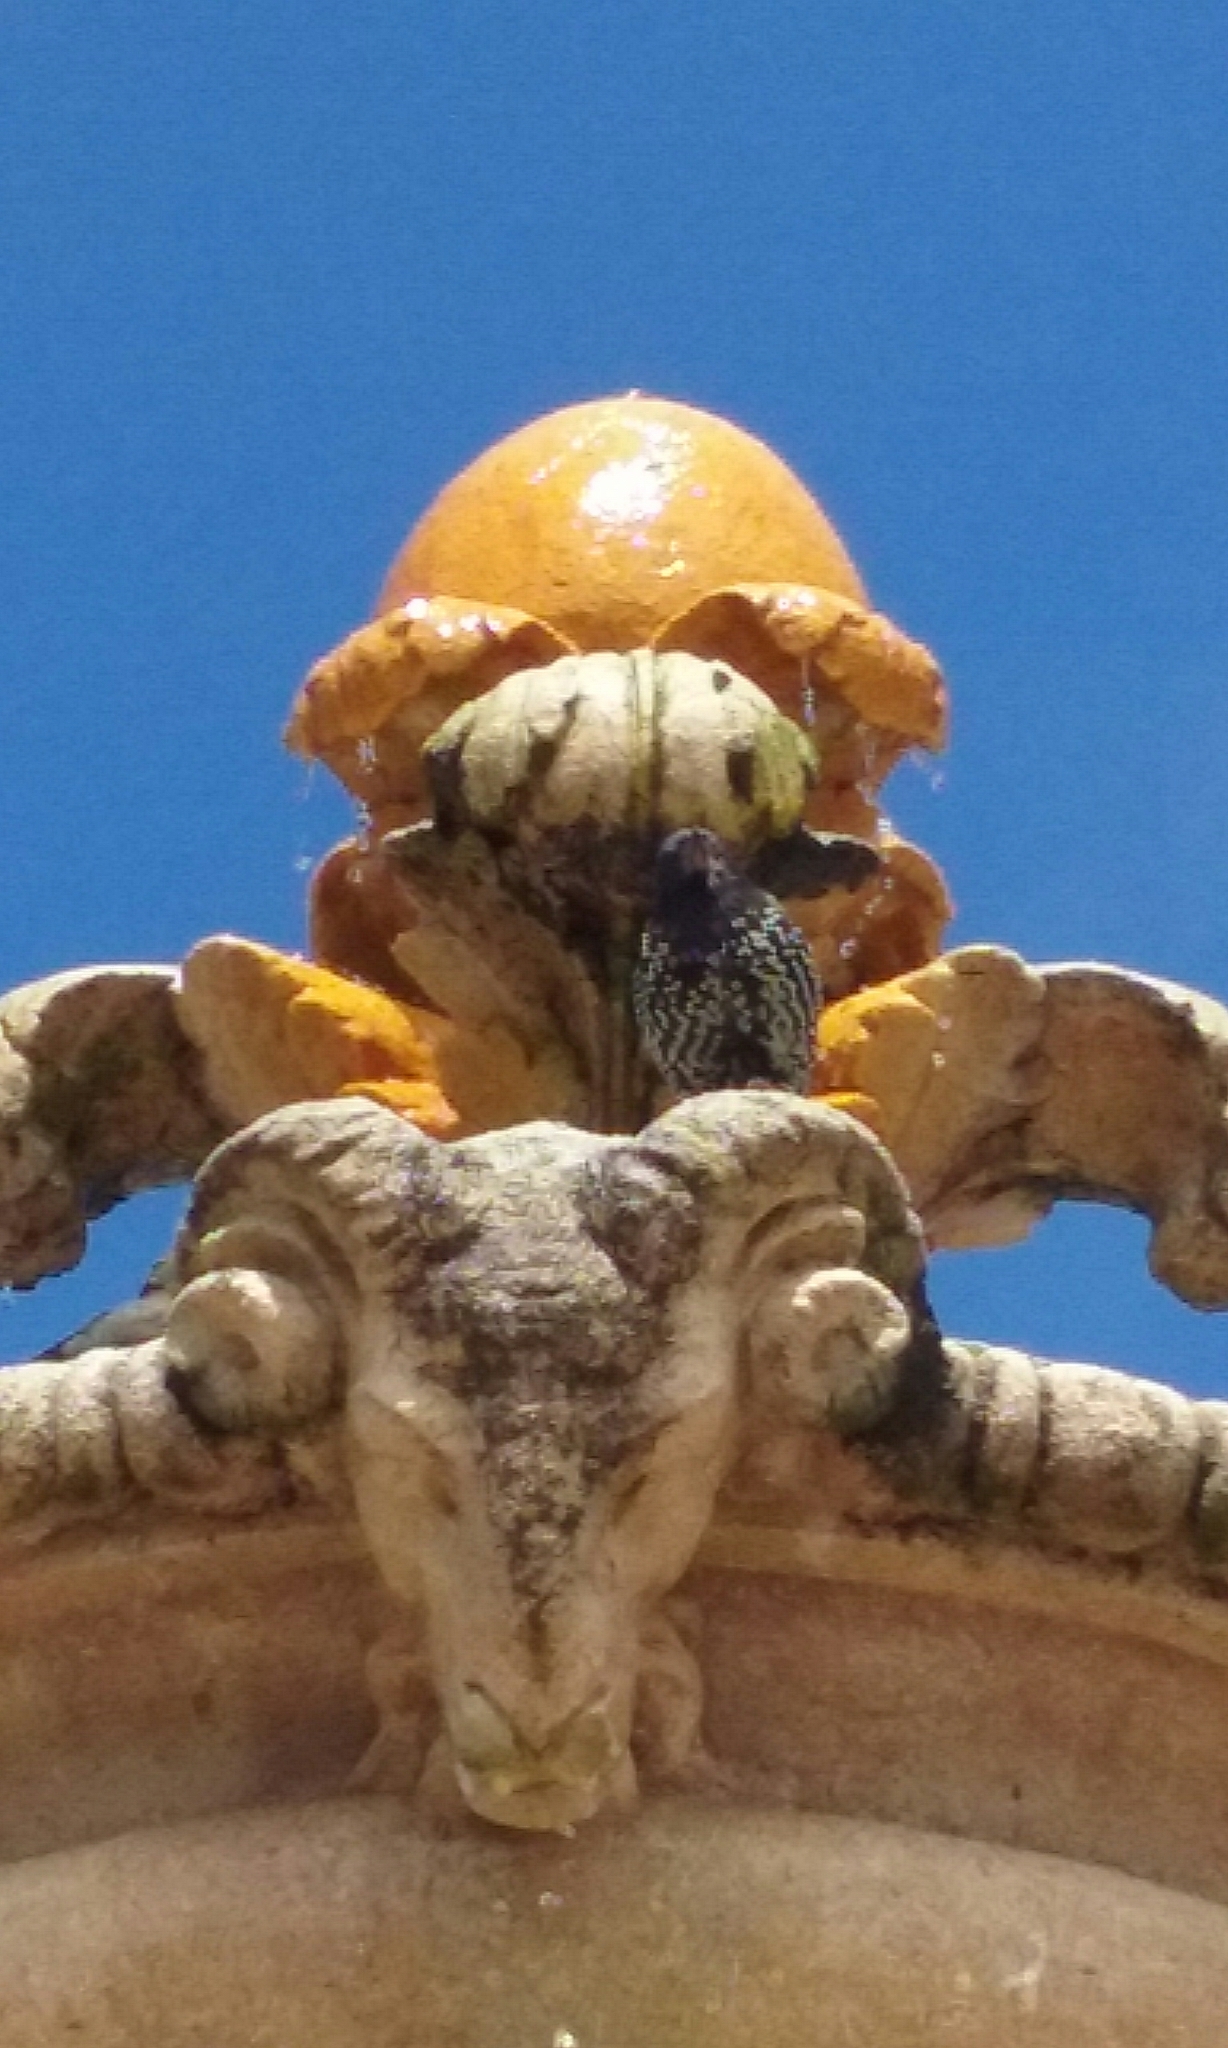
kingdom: Animalia
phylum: Chordata
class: Aves
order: Passeriformes
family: Sturnidae
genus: Sturnus
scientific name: Sturnus vulgaris
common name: Common starling
